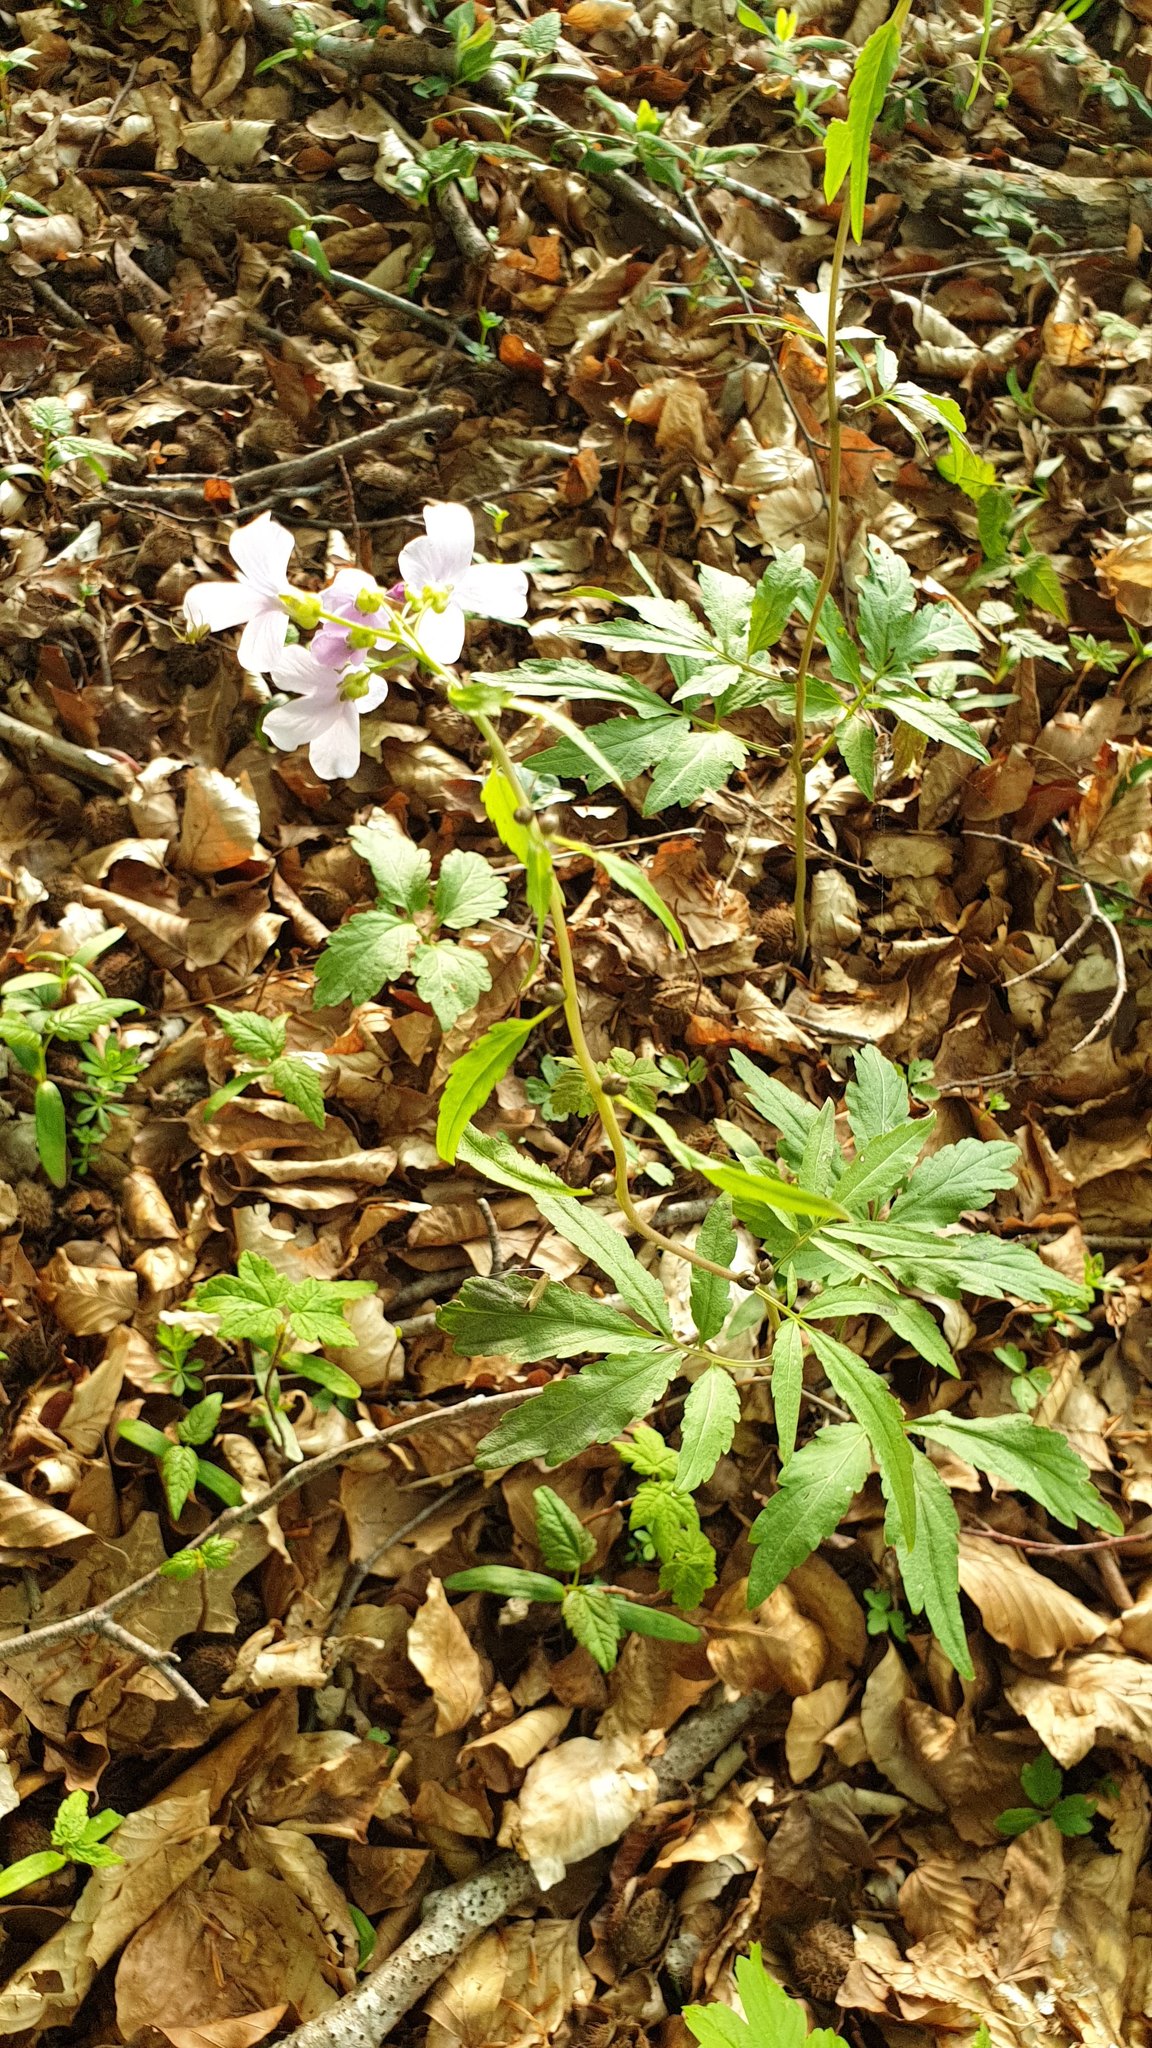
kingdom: Plantae
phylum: Tracheophyta
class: Magnoliopsida
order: Brassicales
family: Brassicaceae
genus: Cardamine
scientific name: Cardamine bulbifera
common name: Coralroot bittercress
